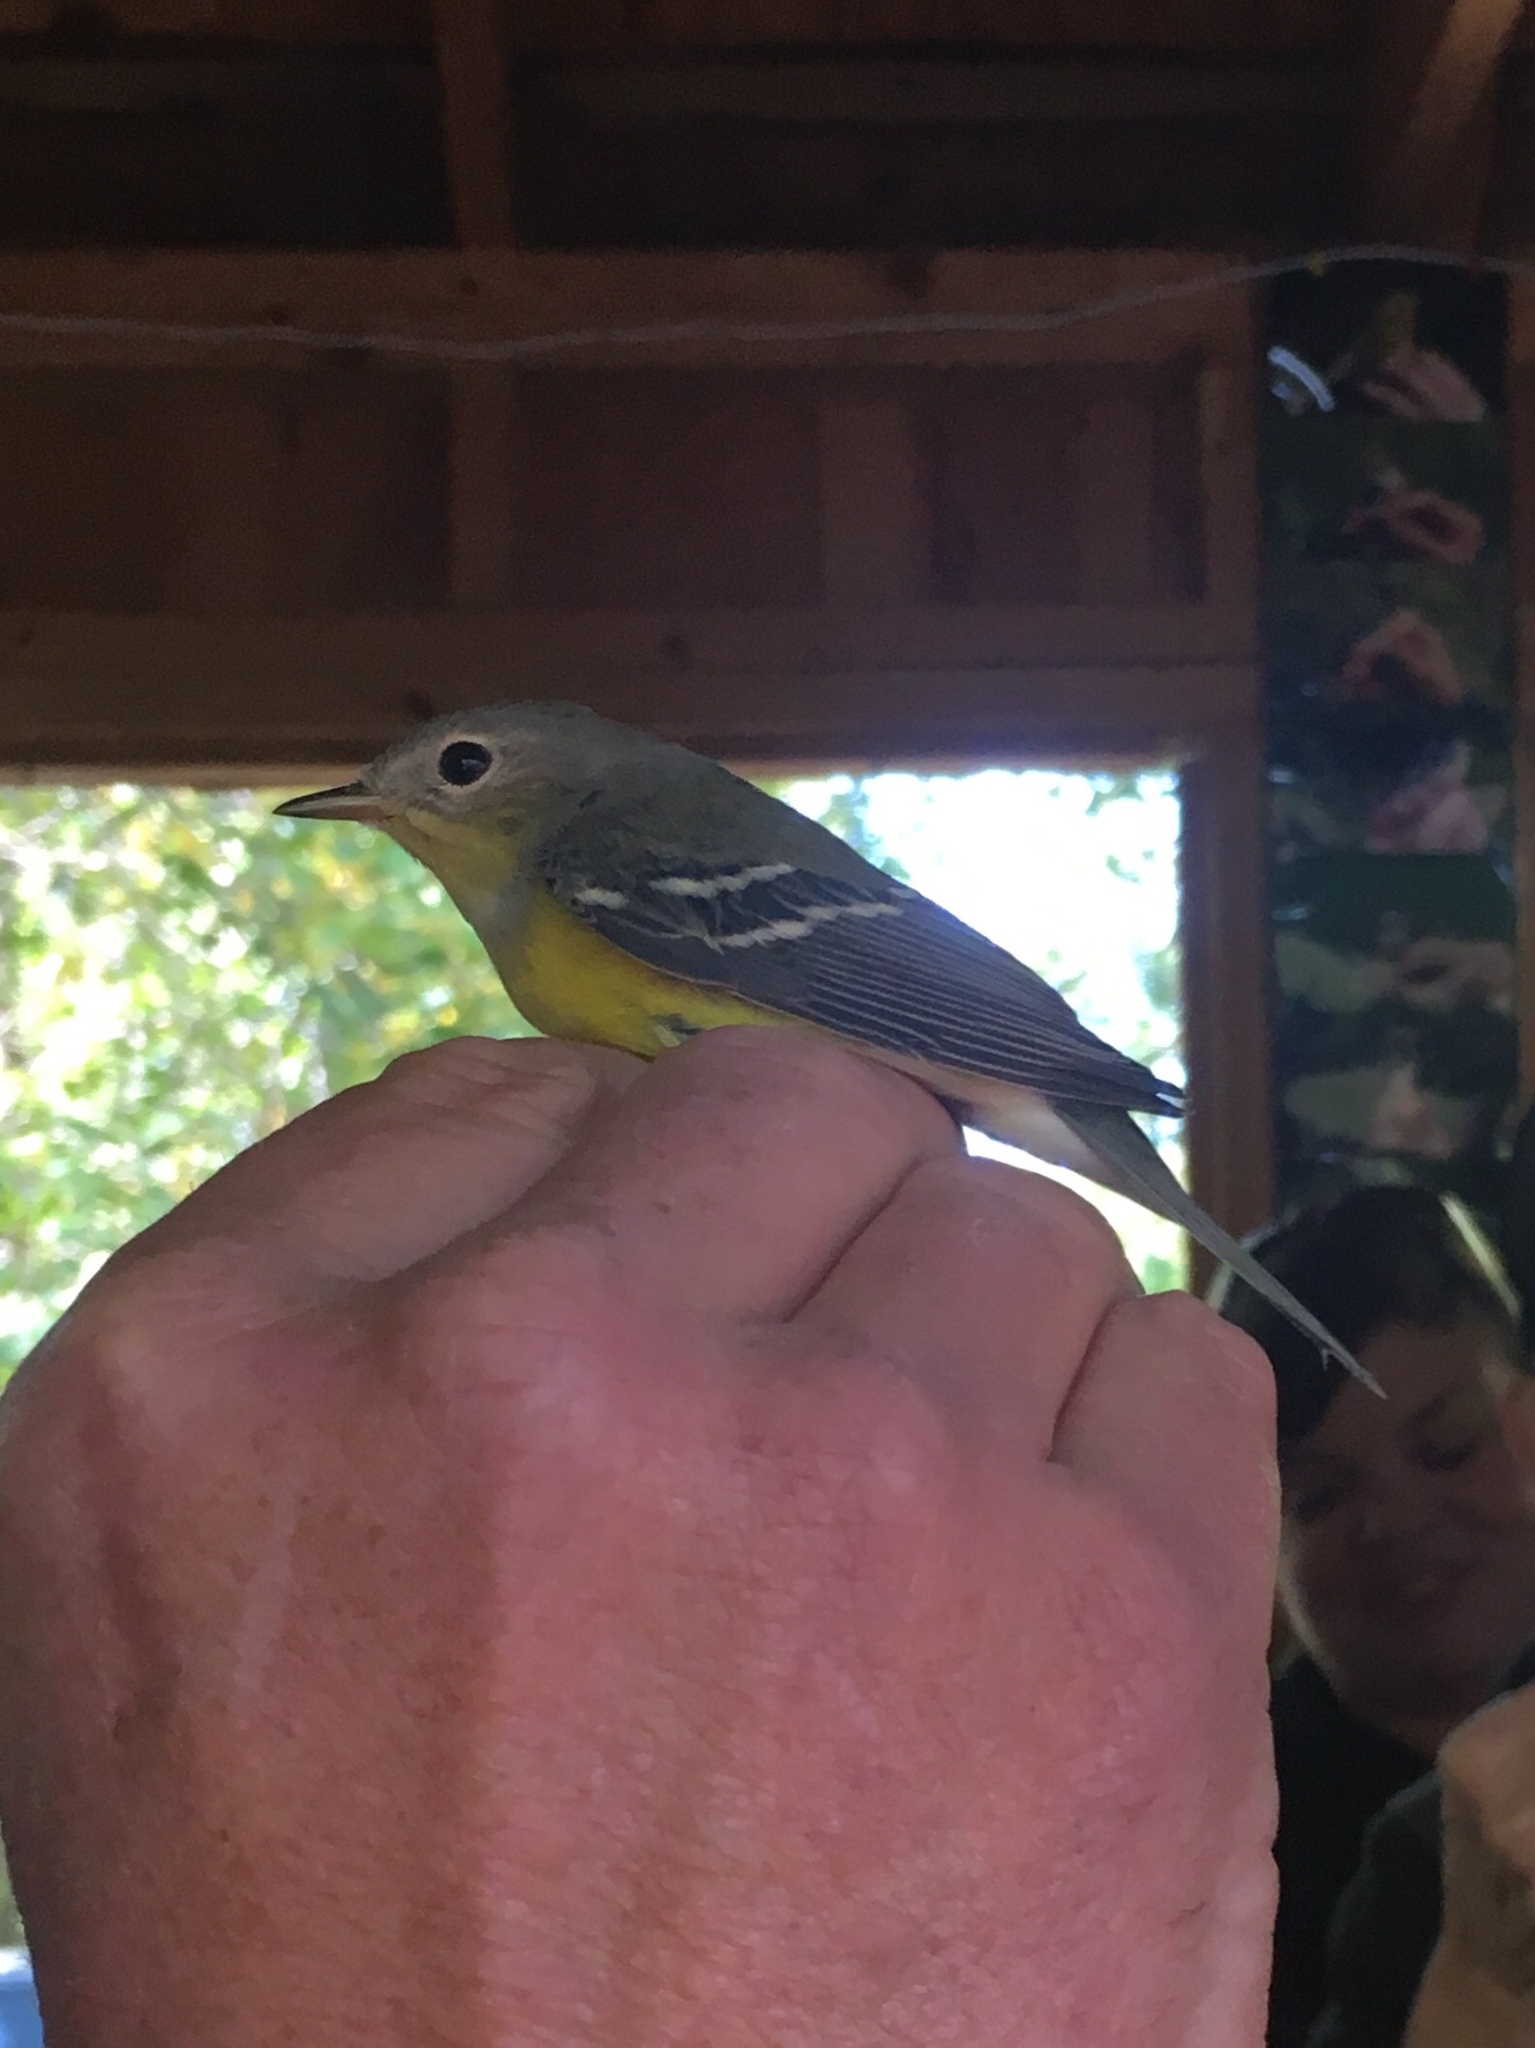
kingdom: Animalia
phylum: Chordata
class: Aves
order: Passeriformes
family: Parulidae
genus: Setophaga
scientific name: Setophaga magnolia
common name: Magnolia warbler
